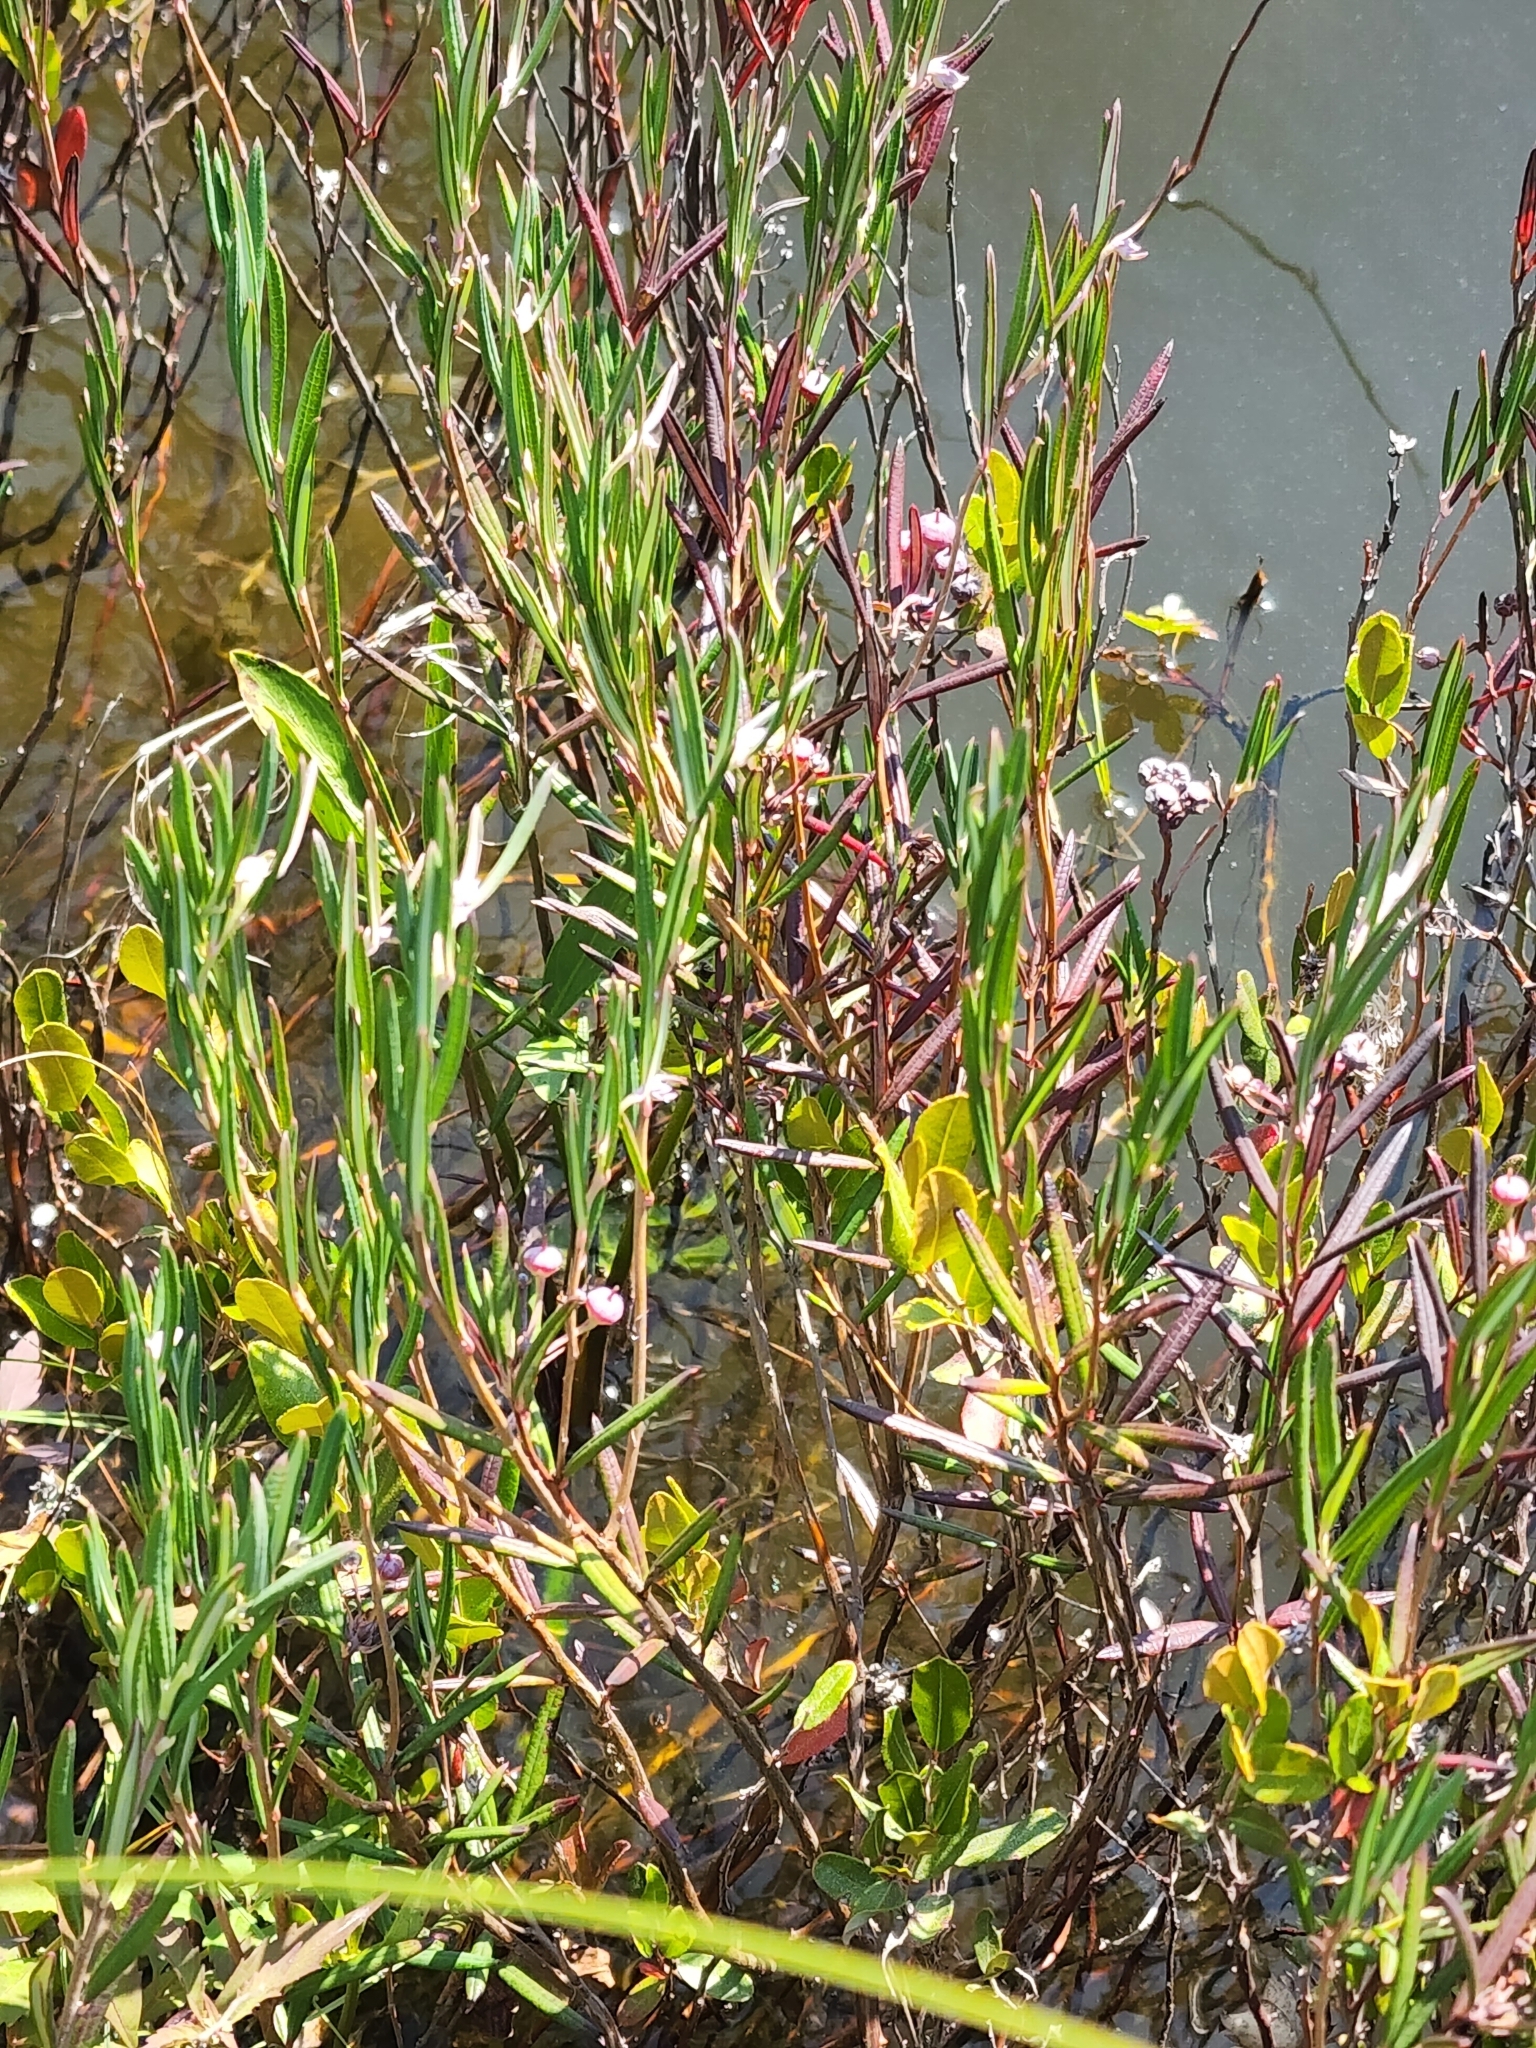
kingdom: Plantae
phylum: Tracheophyta
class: Magnoliopsida
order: Ericales
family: Ericaceae
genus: Andromeda
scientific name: Andromeda polifolia
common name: Bog-rosemary
